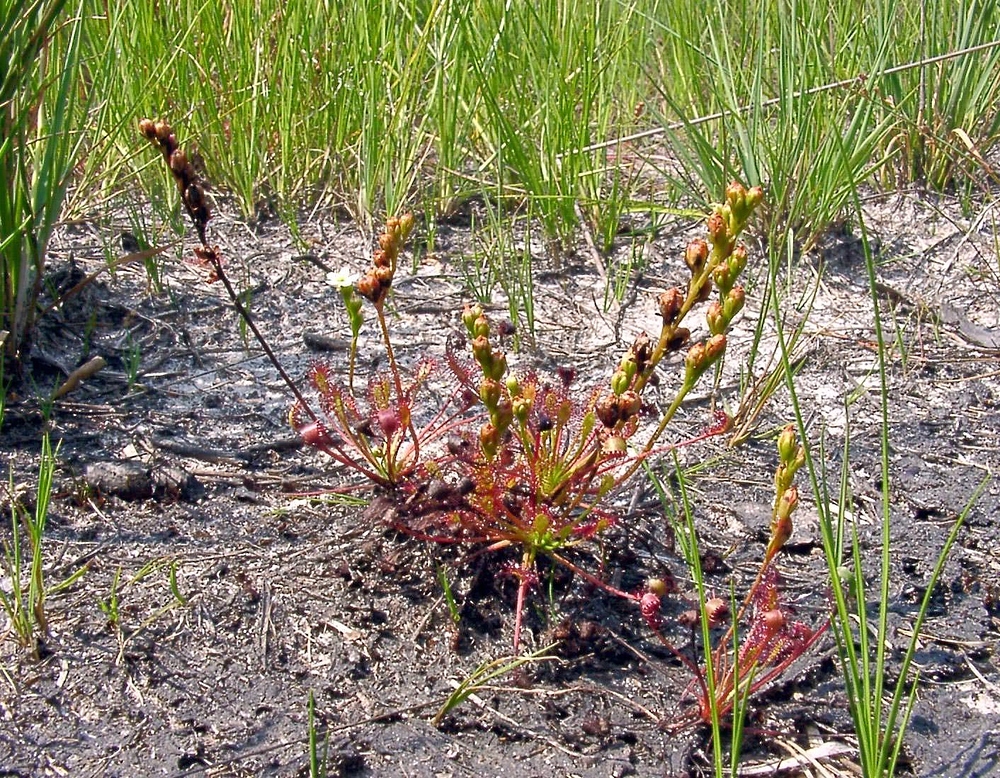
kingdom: Plantae
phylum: Tracheophyta
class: Magnoliopsida
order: Caryophyllales
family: Droseraceae
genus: Drosera
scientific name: Drosera intermedia
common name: Oblong-leaved sundew
